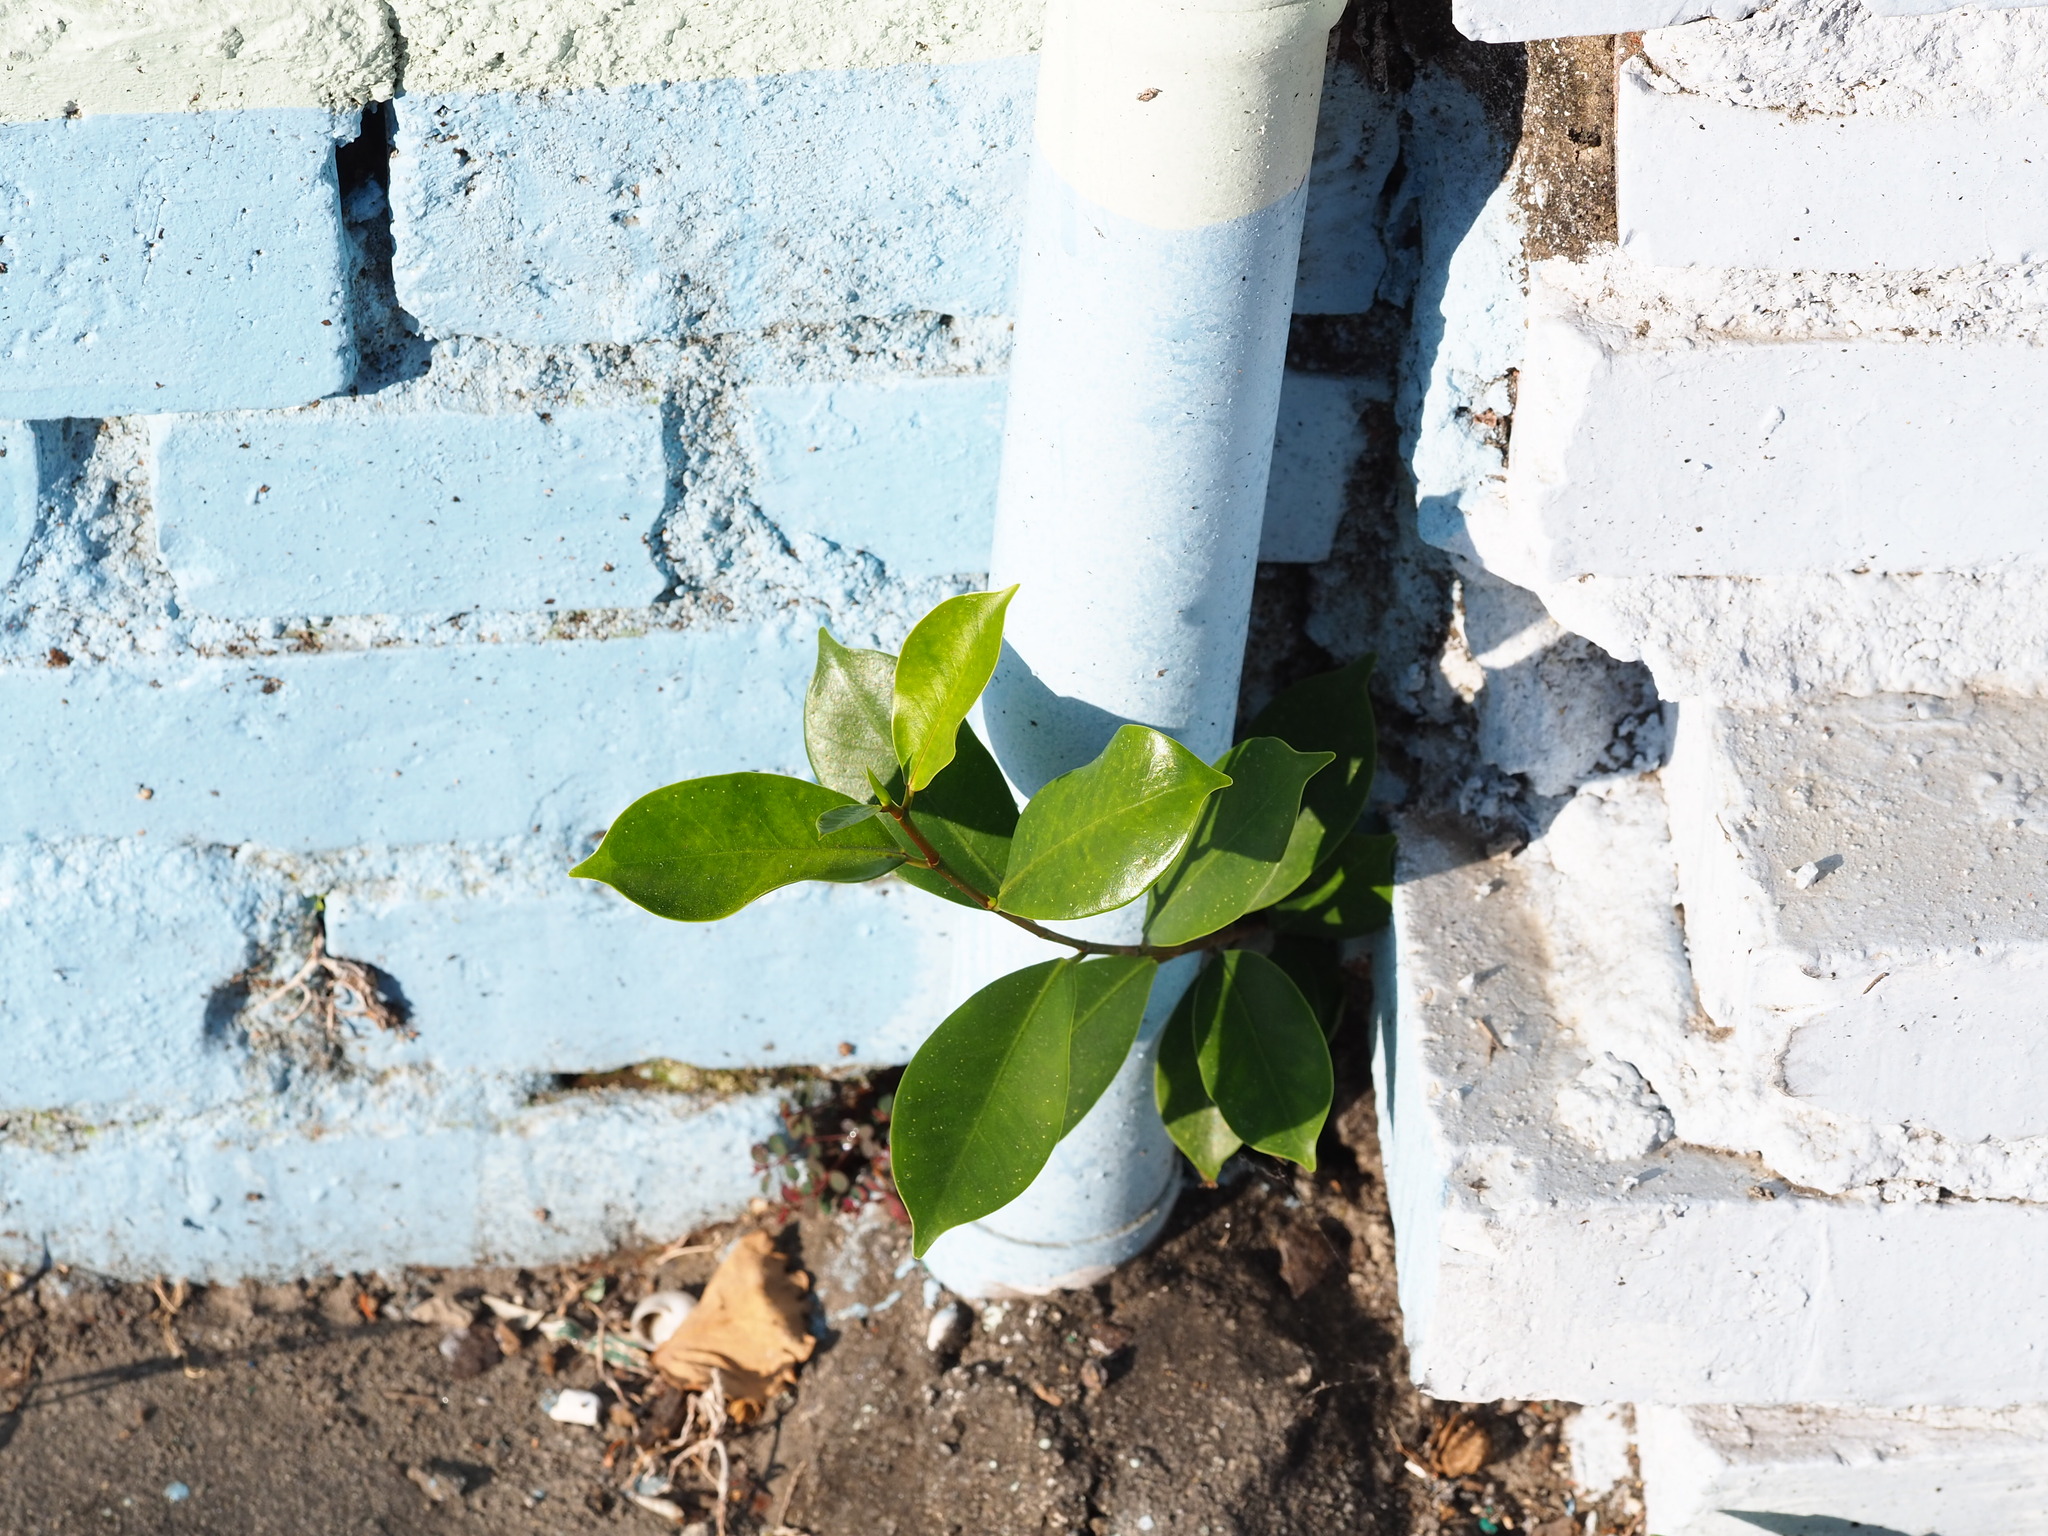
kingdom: Plantae
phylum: Tracheophyta
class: Magnoliopsida
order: Rosales
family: Moraceae
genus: Ficus
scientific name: Ficus microcarpa
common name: Chinese banyan
